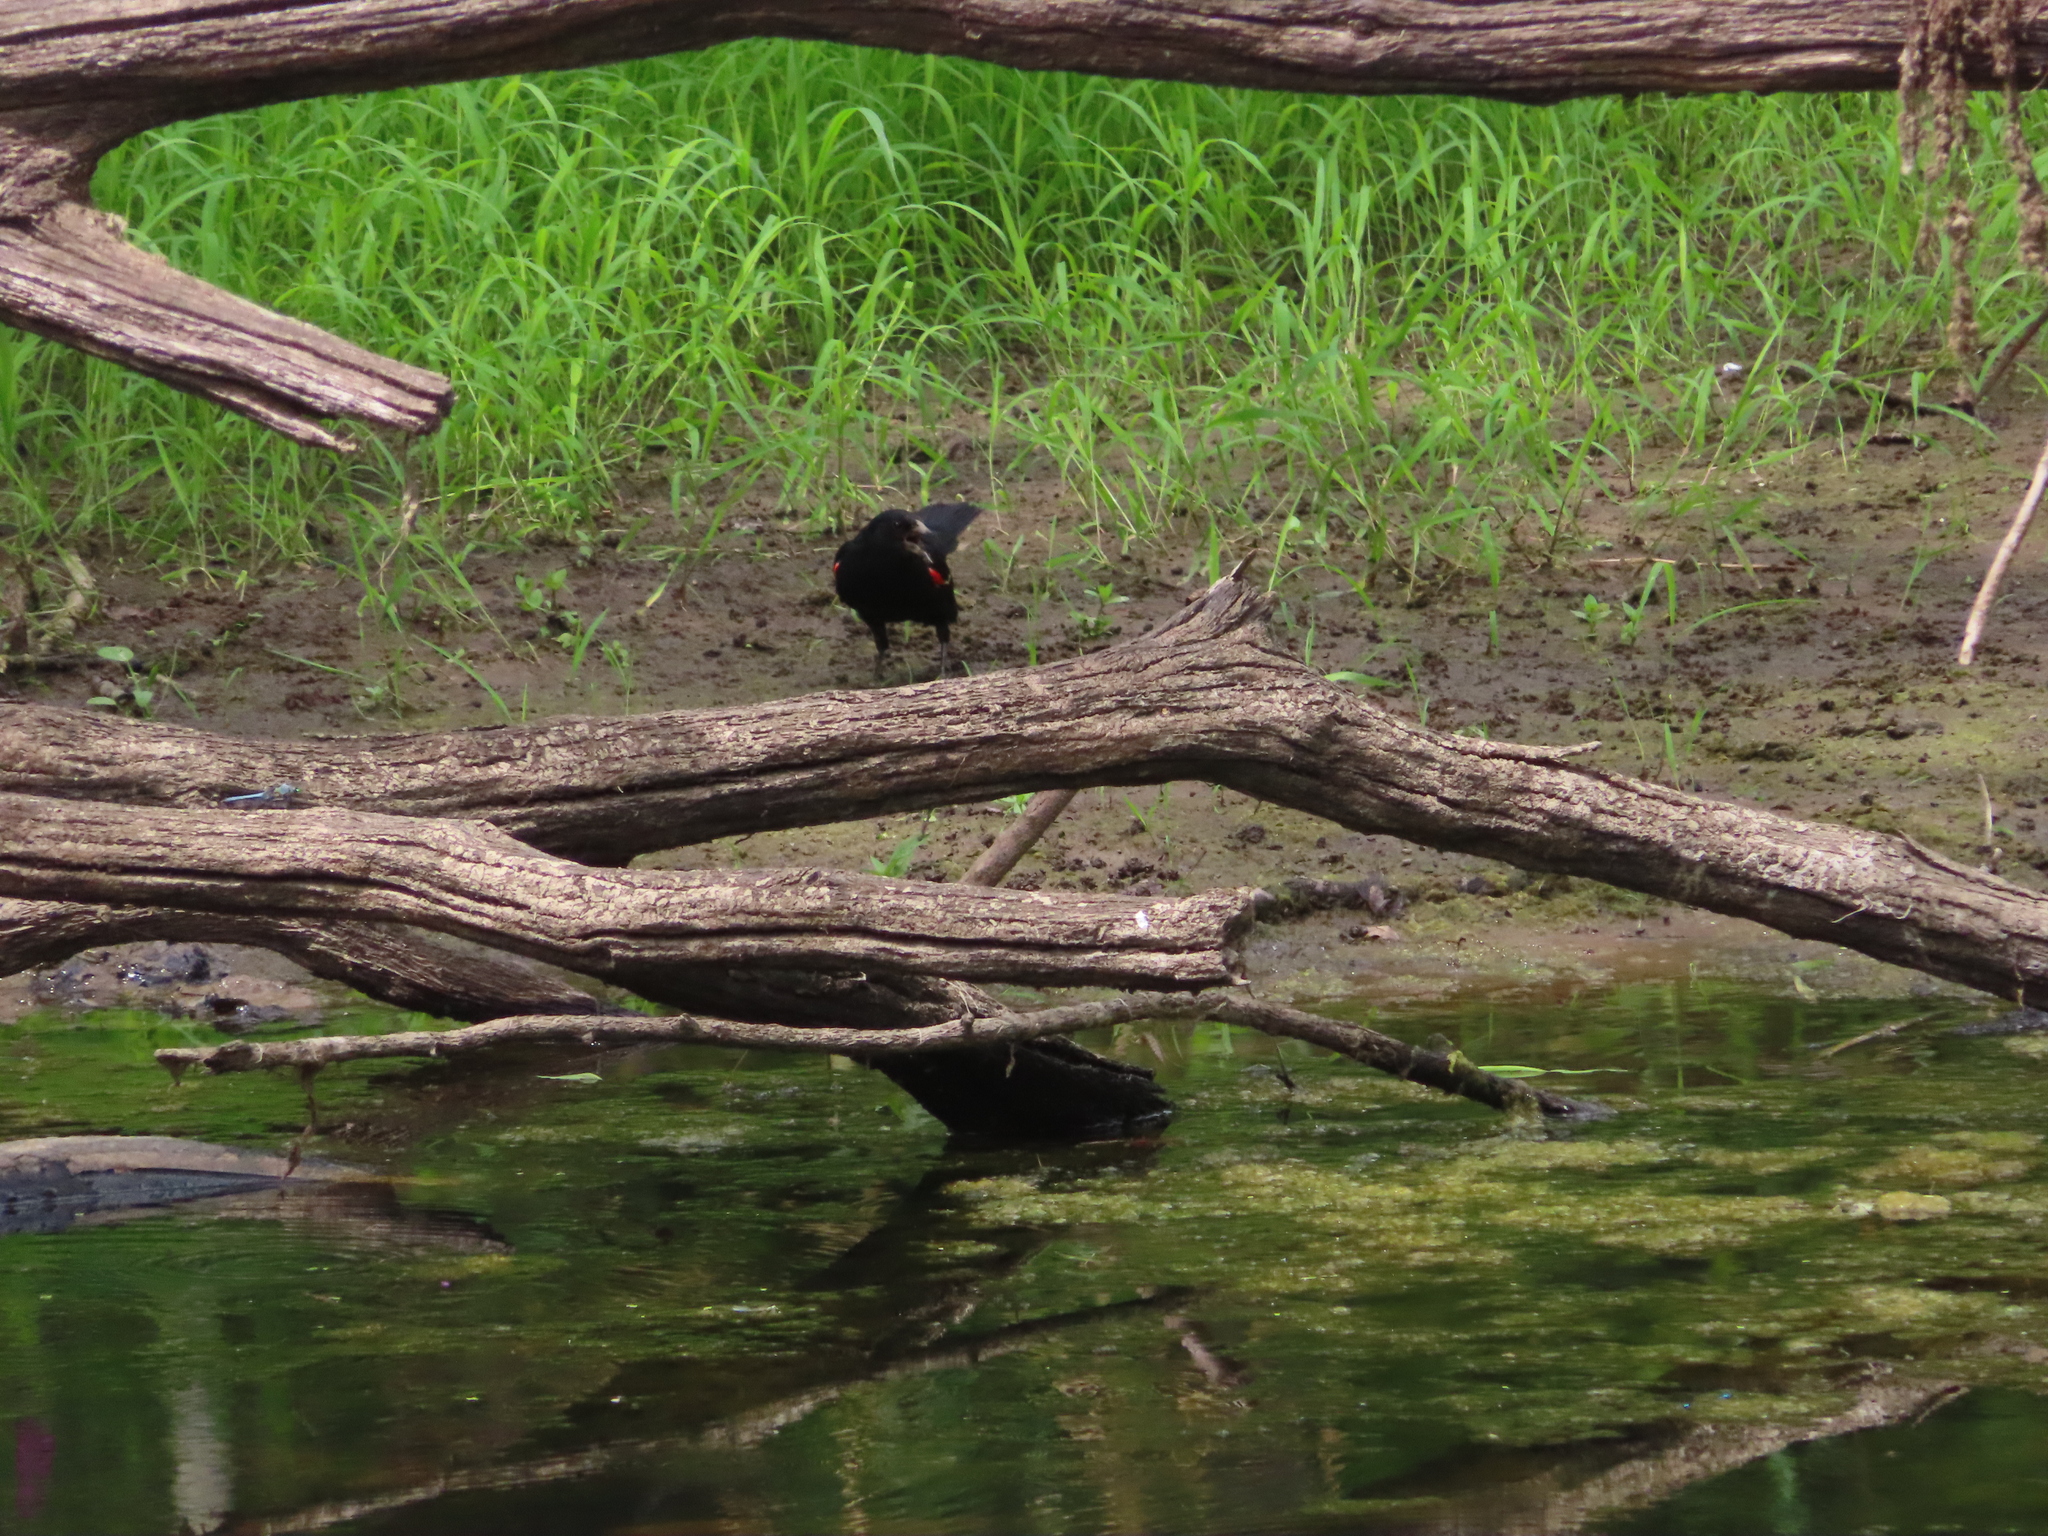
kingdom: Animalia
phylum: Chordata
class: Aves
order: Passeriformes
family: Icteridae
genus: Agelaius
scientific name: Agelaius phoeniceus
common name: Red-winged blackbird
